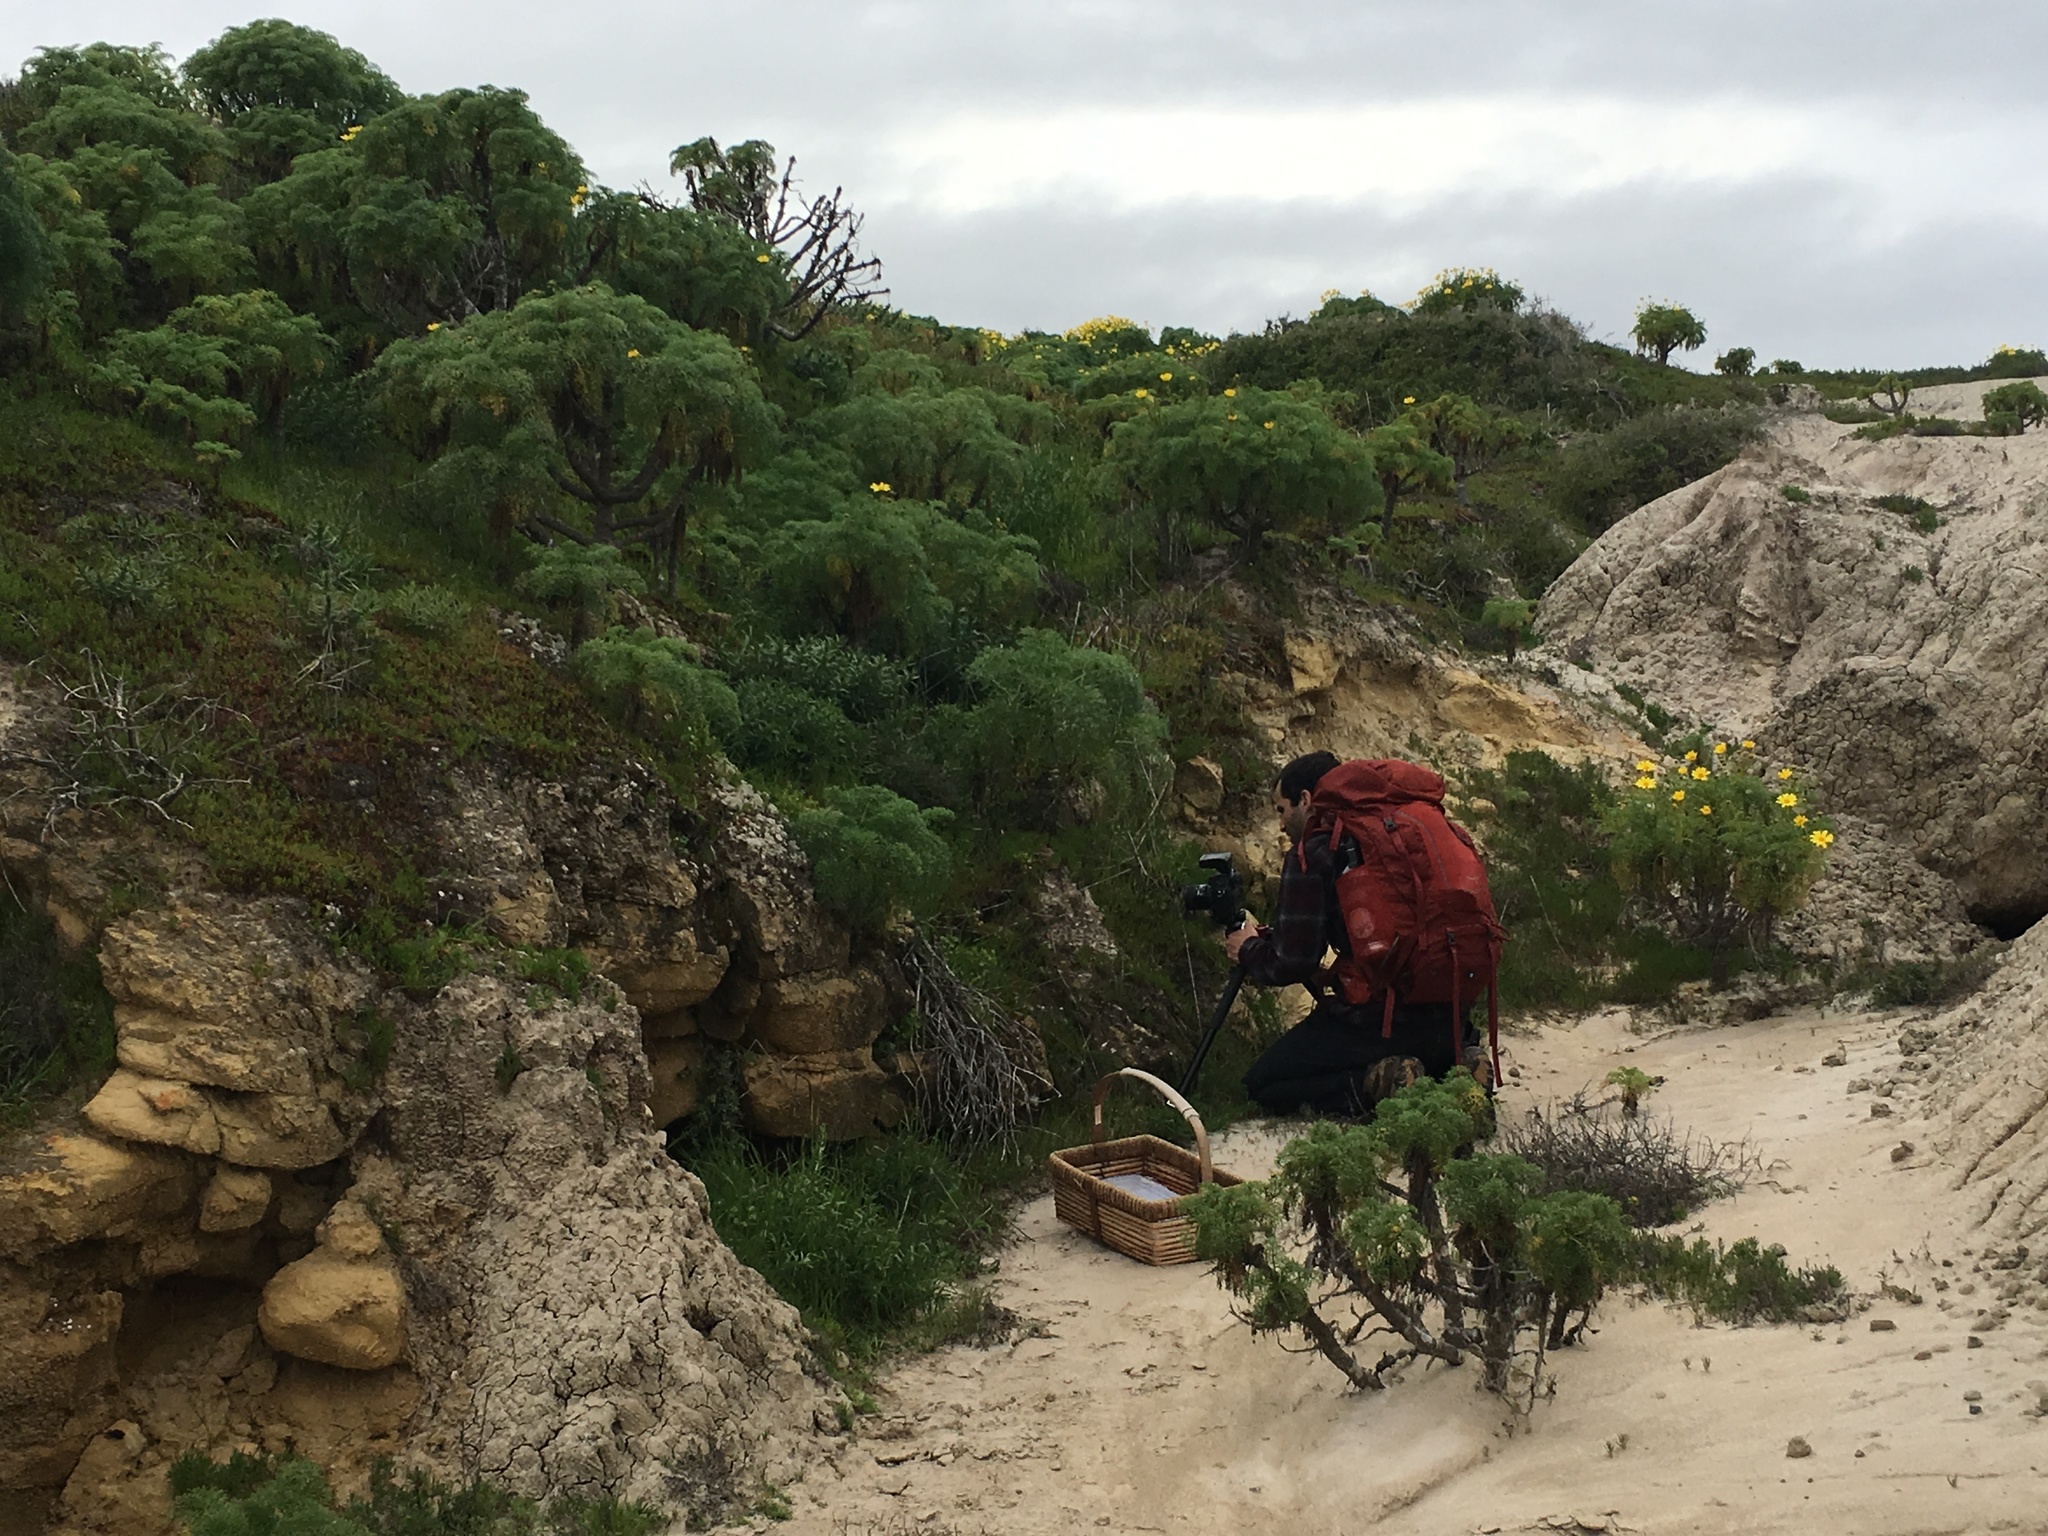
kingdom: Plantae
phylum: Tracheophyta
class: Magnoliopsida
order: Asterales
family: Asteraceae
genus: Coreopsis
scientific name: Coreopsis gigantea
